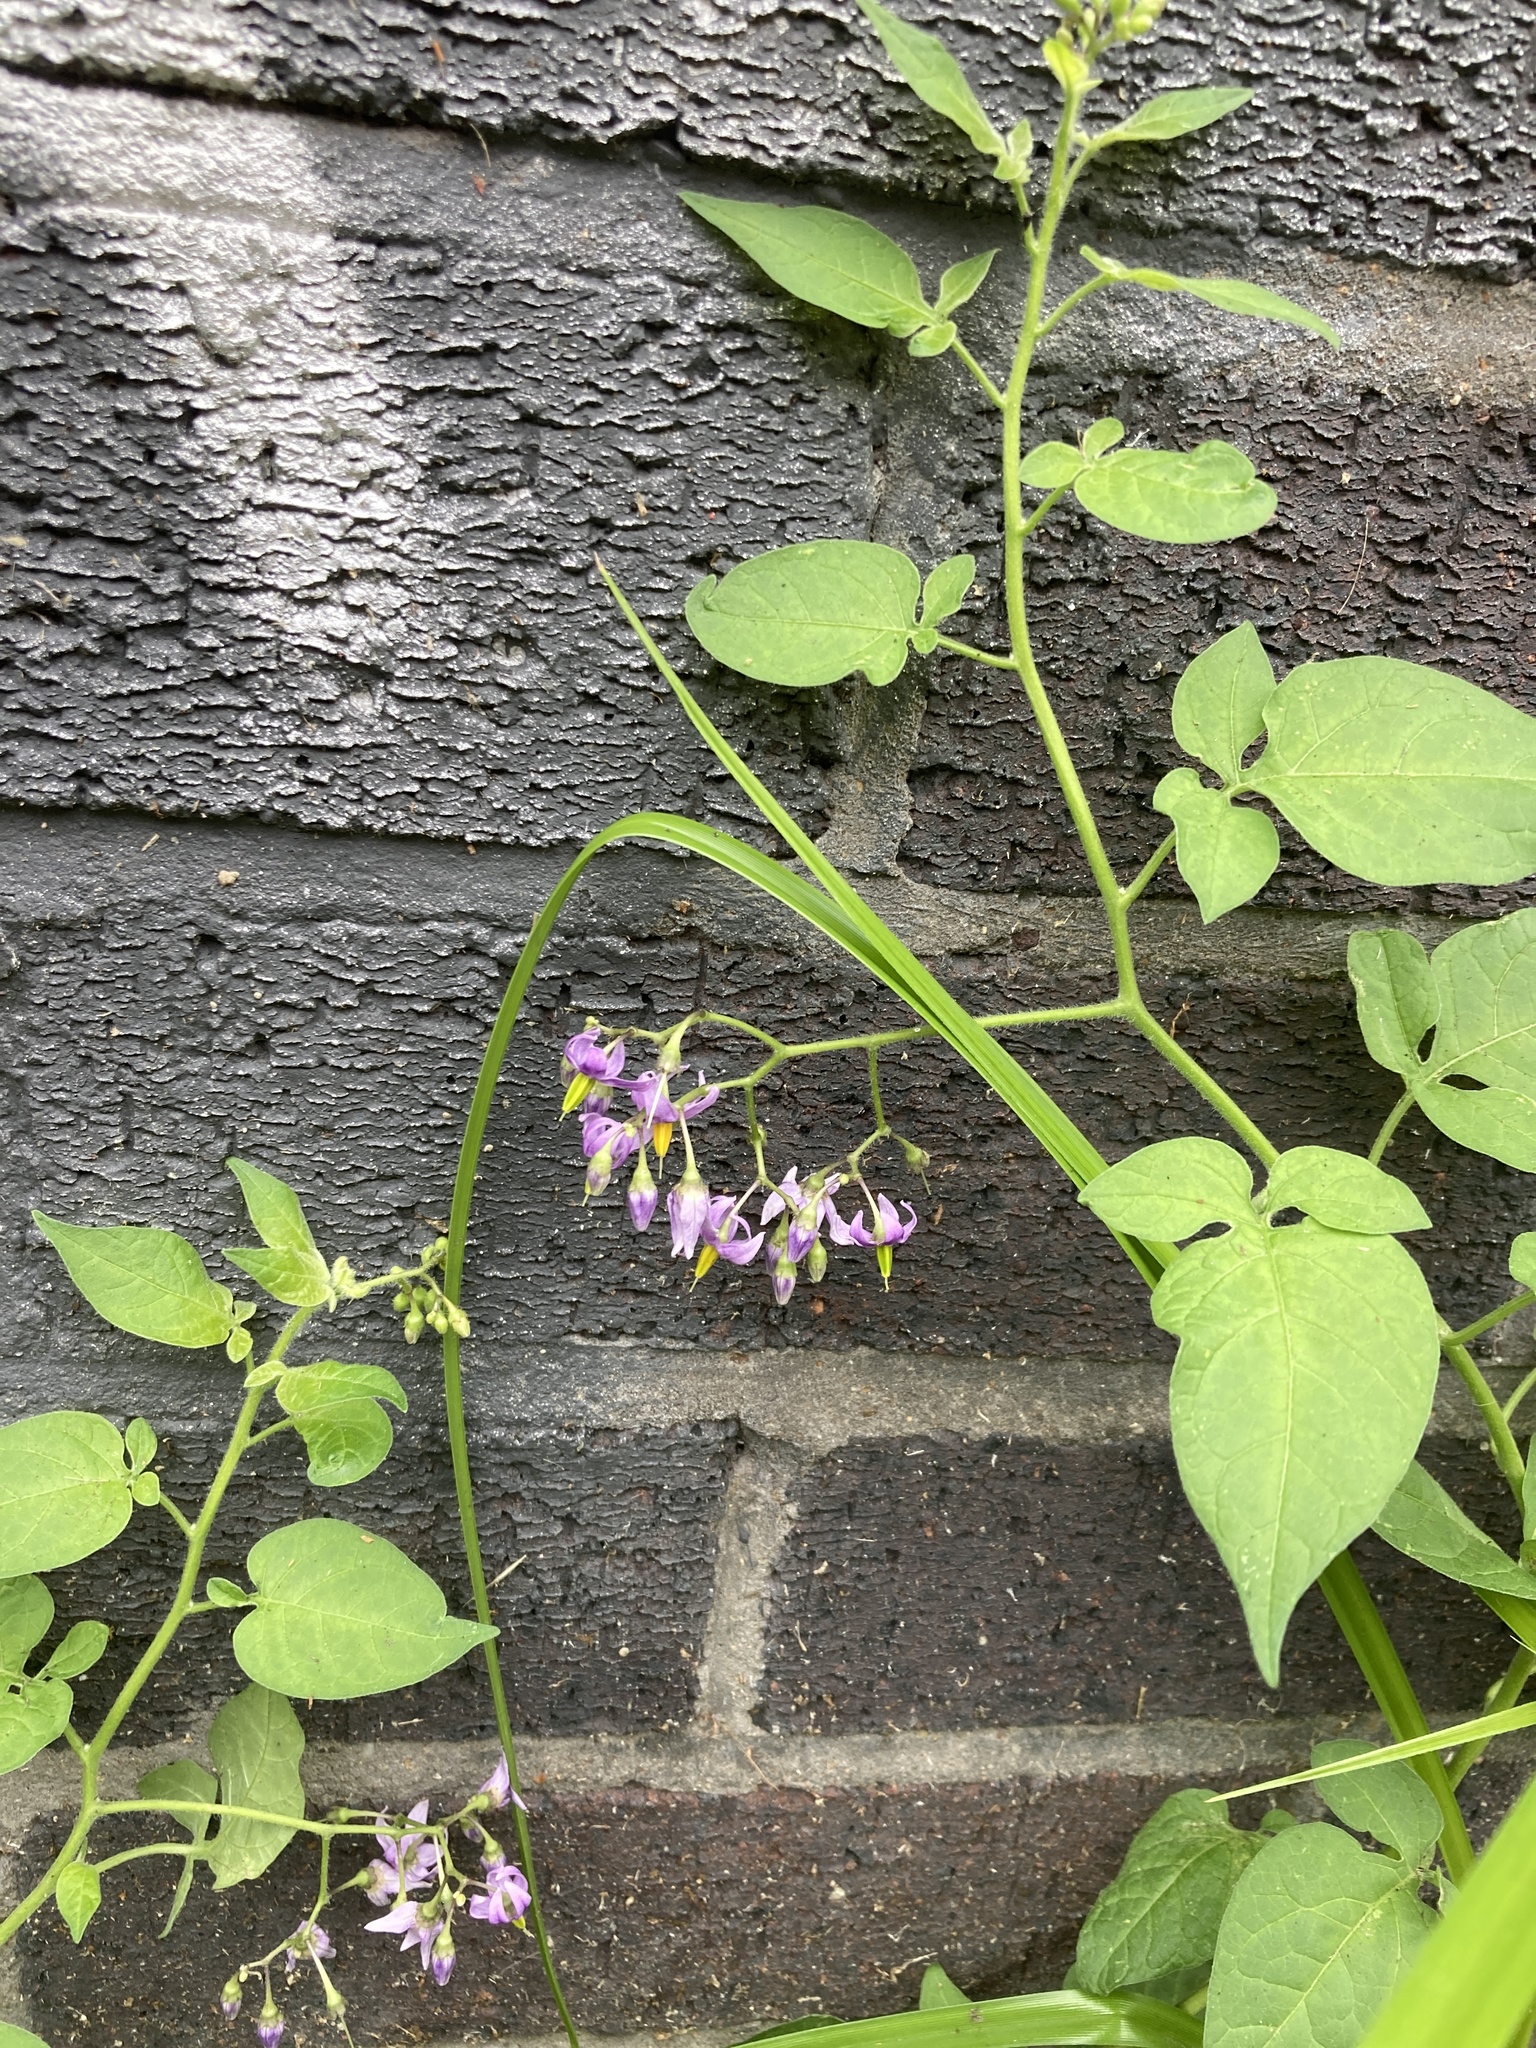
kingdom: Plantae
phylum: Tracheophyta
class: Magnoliopsida
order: Solanales
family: Solanaceae
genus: Solanum
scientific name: Solanum dulcamara
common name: Climbing nightshade
